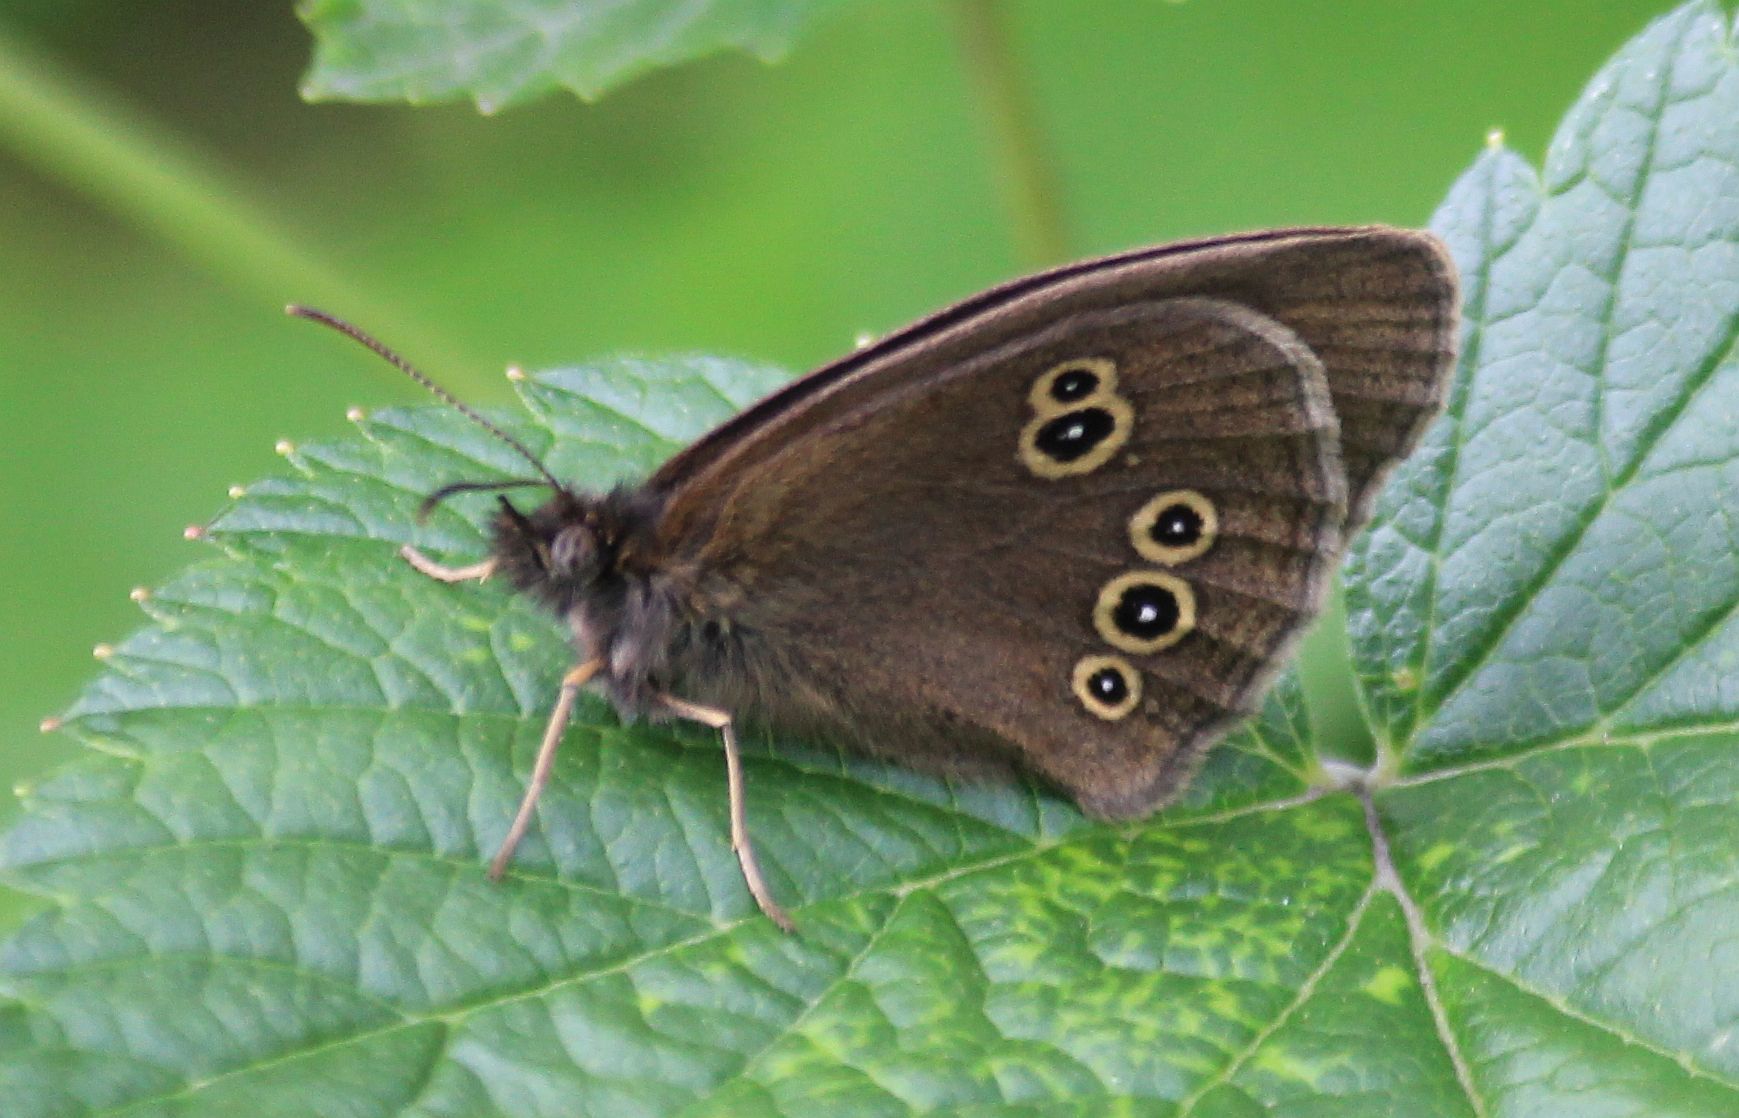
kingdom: Animalia
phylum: Arthropoda
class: Insecta
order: Lepidoptera
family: Nymphalidae
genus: Aphantopus
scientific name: Aphantopus hyperantus
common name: Ringlet
